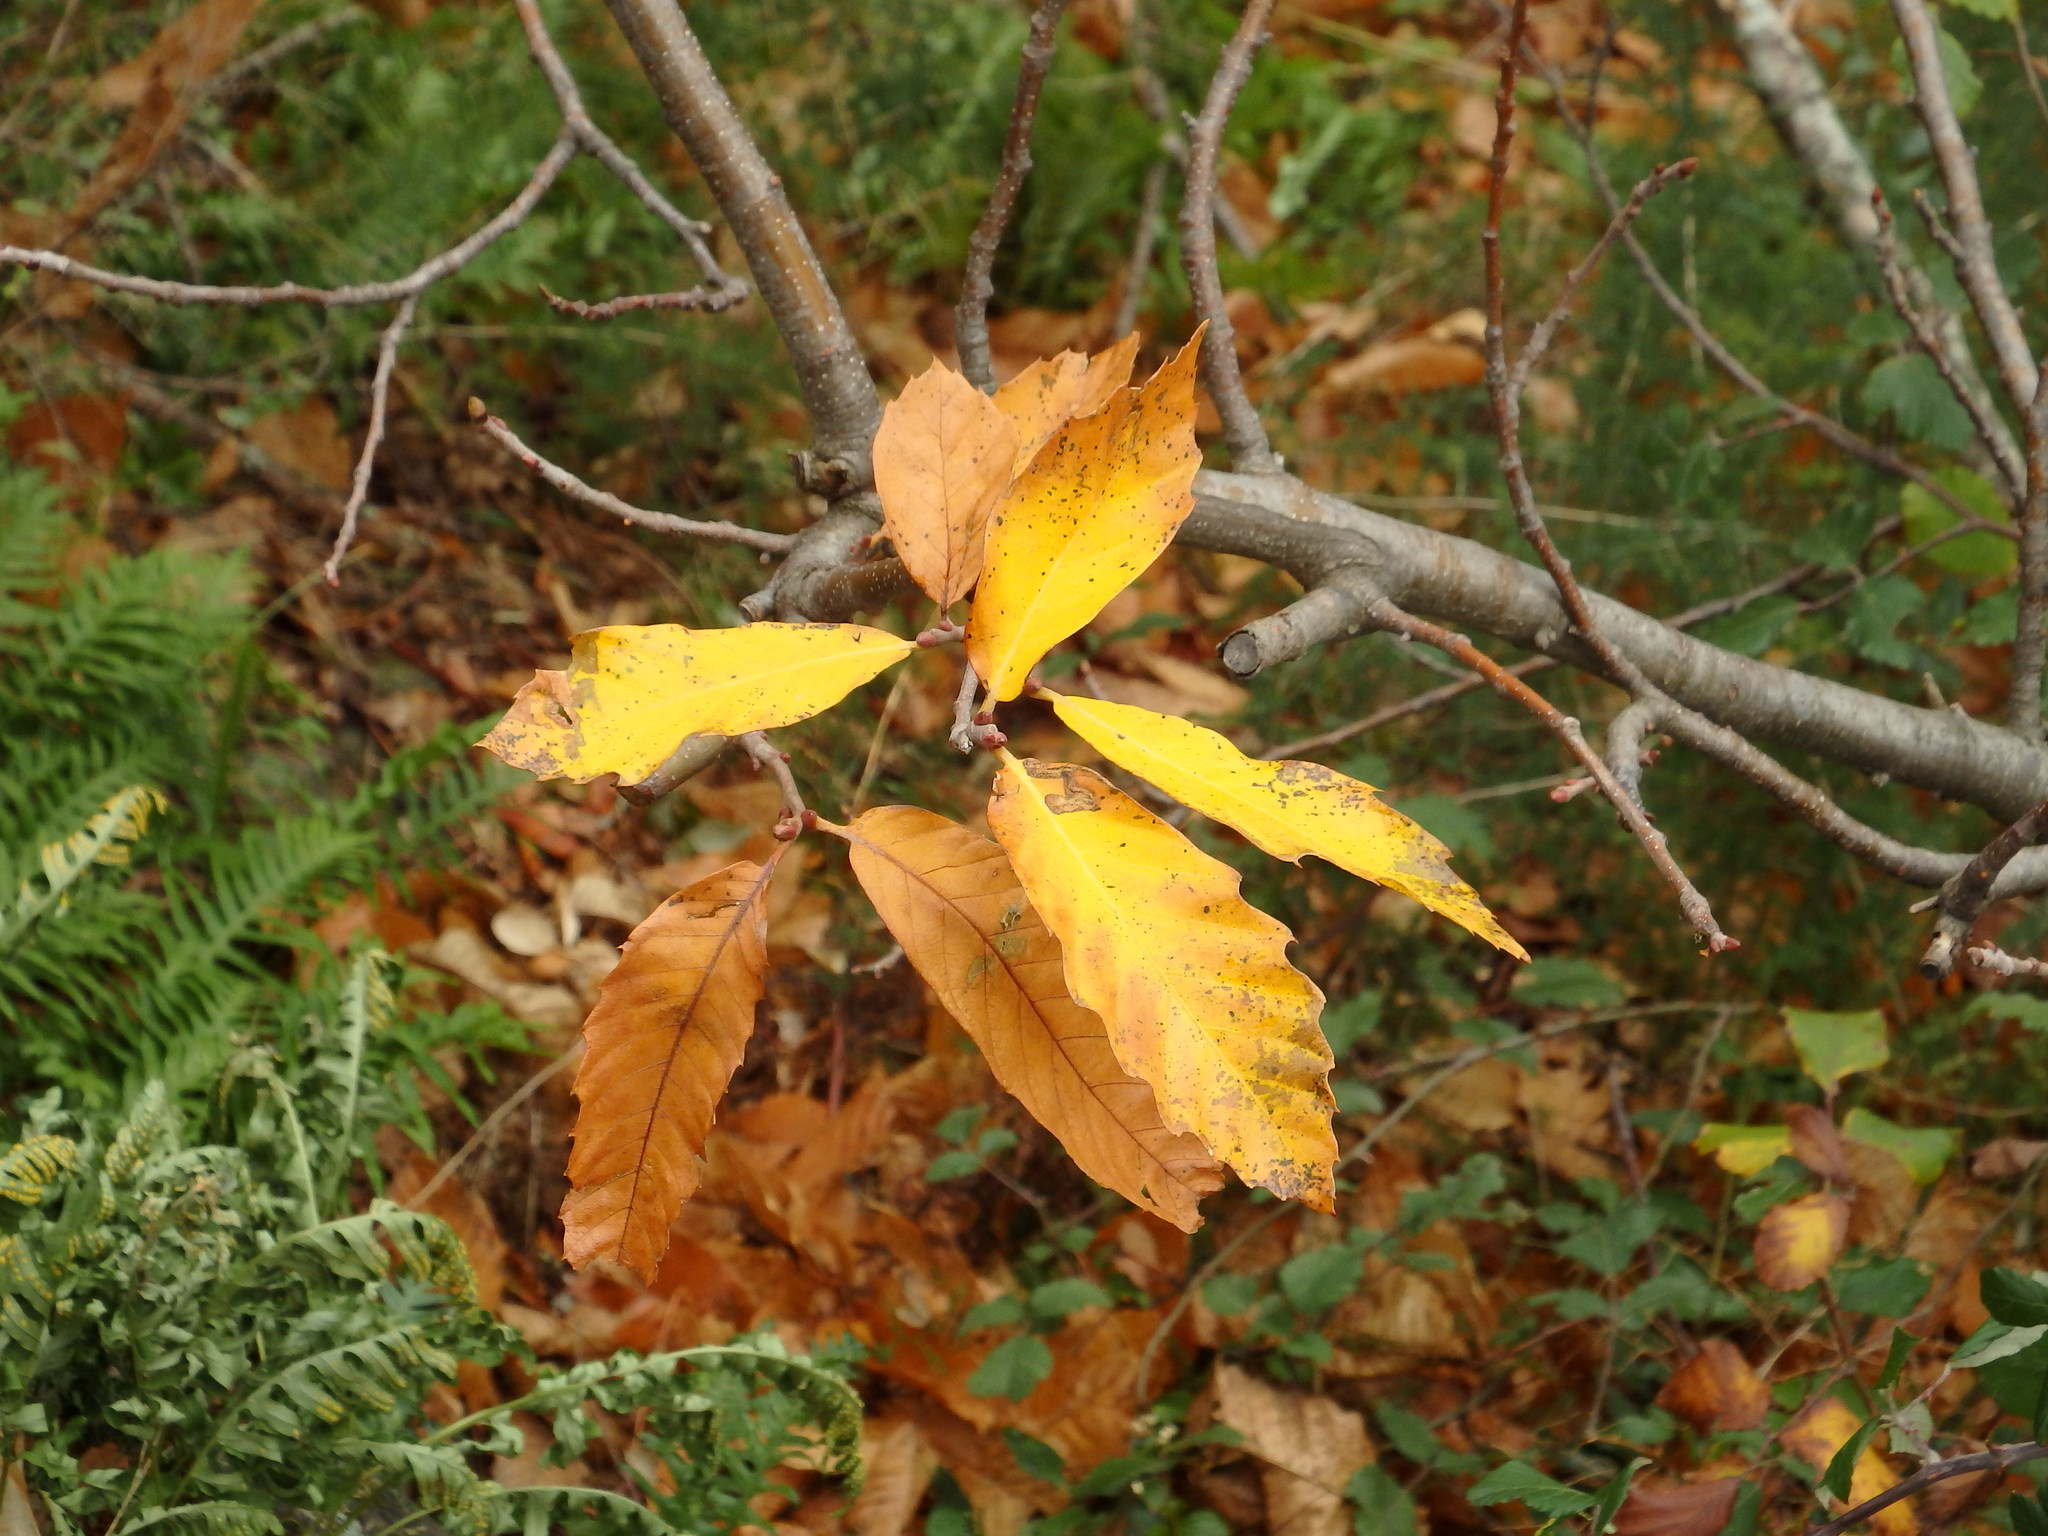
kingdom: Plantae
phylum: Tracheophyta
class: Magnoliopsida
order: Fagales
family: Fagaceae
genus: Castanea
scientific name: Castanea sativa
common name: Sweet chestnut
